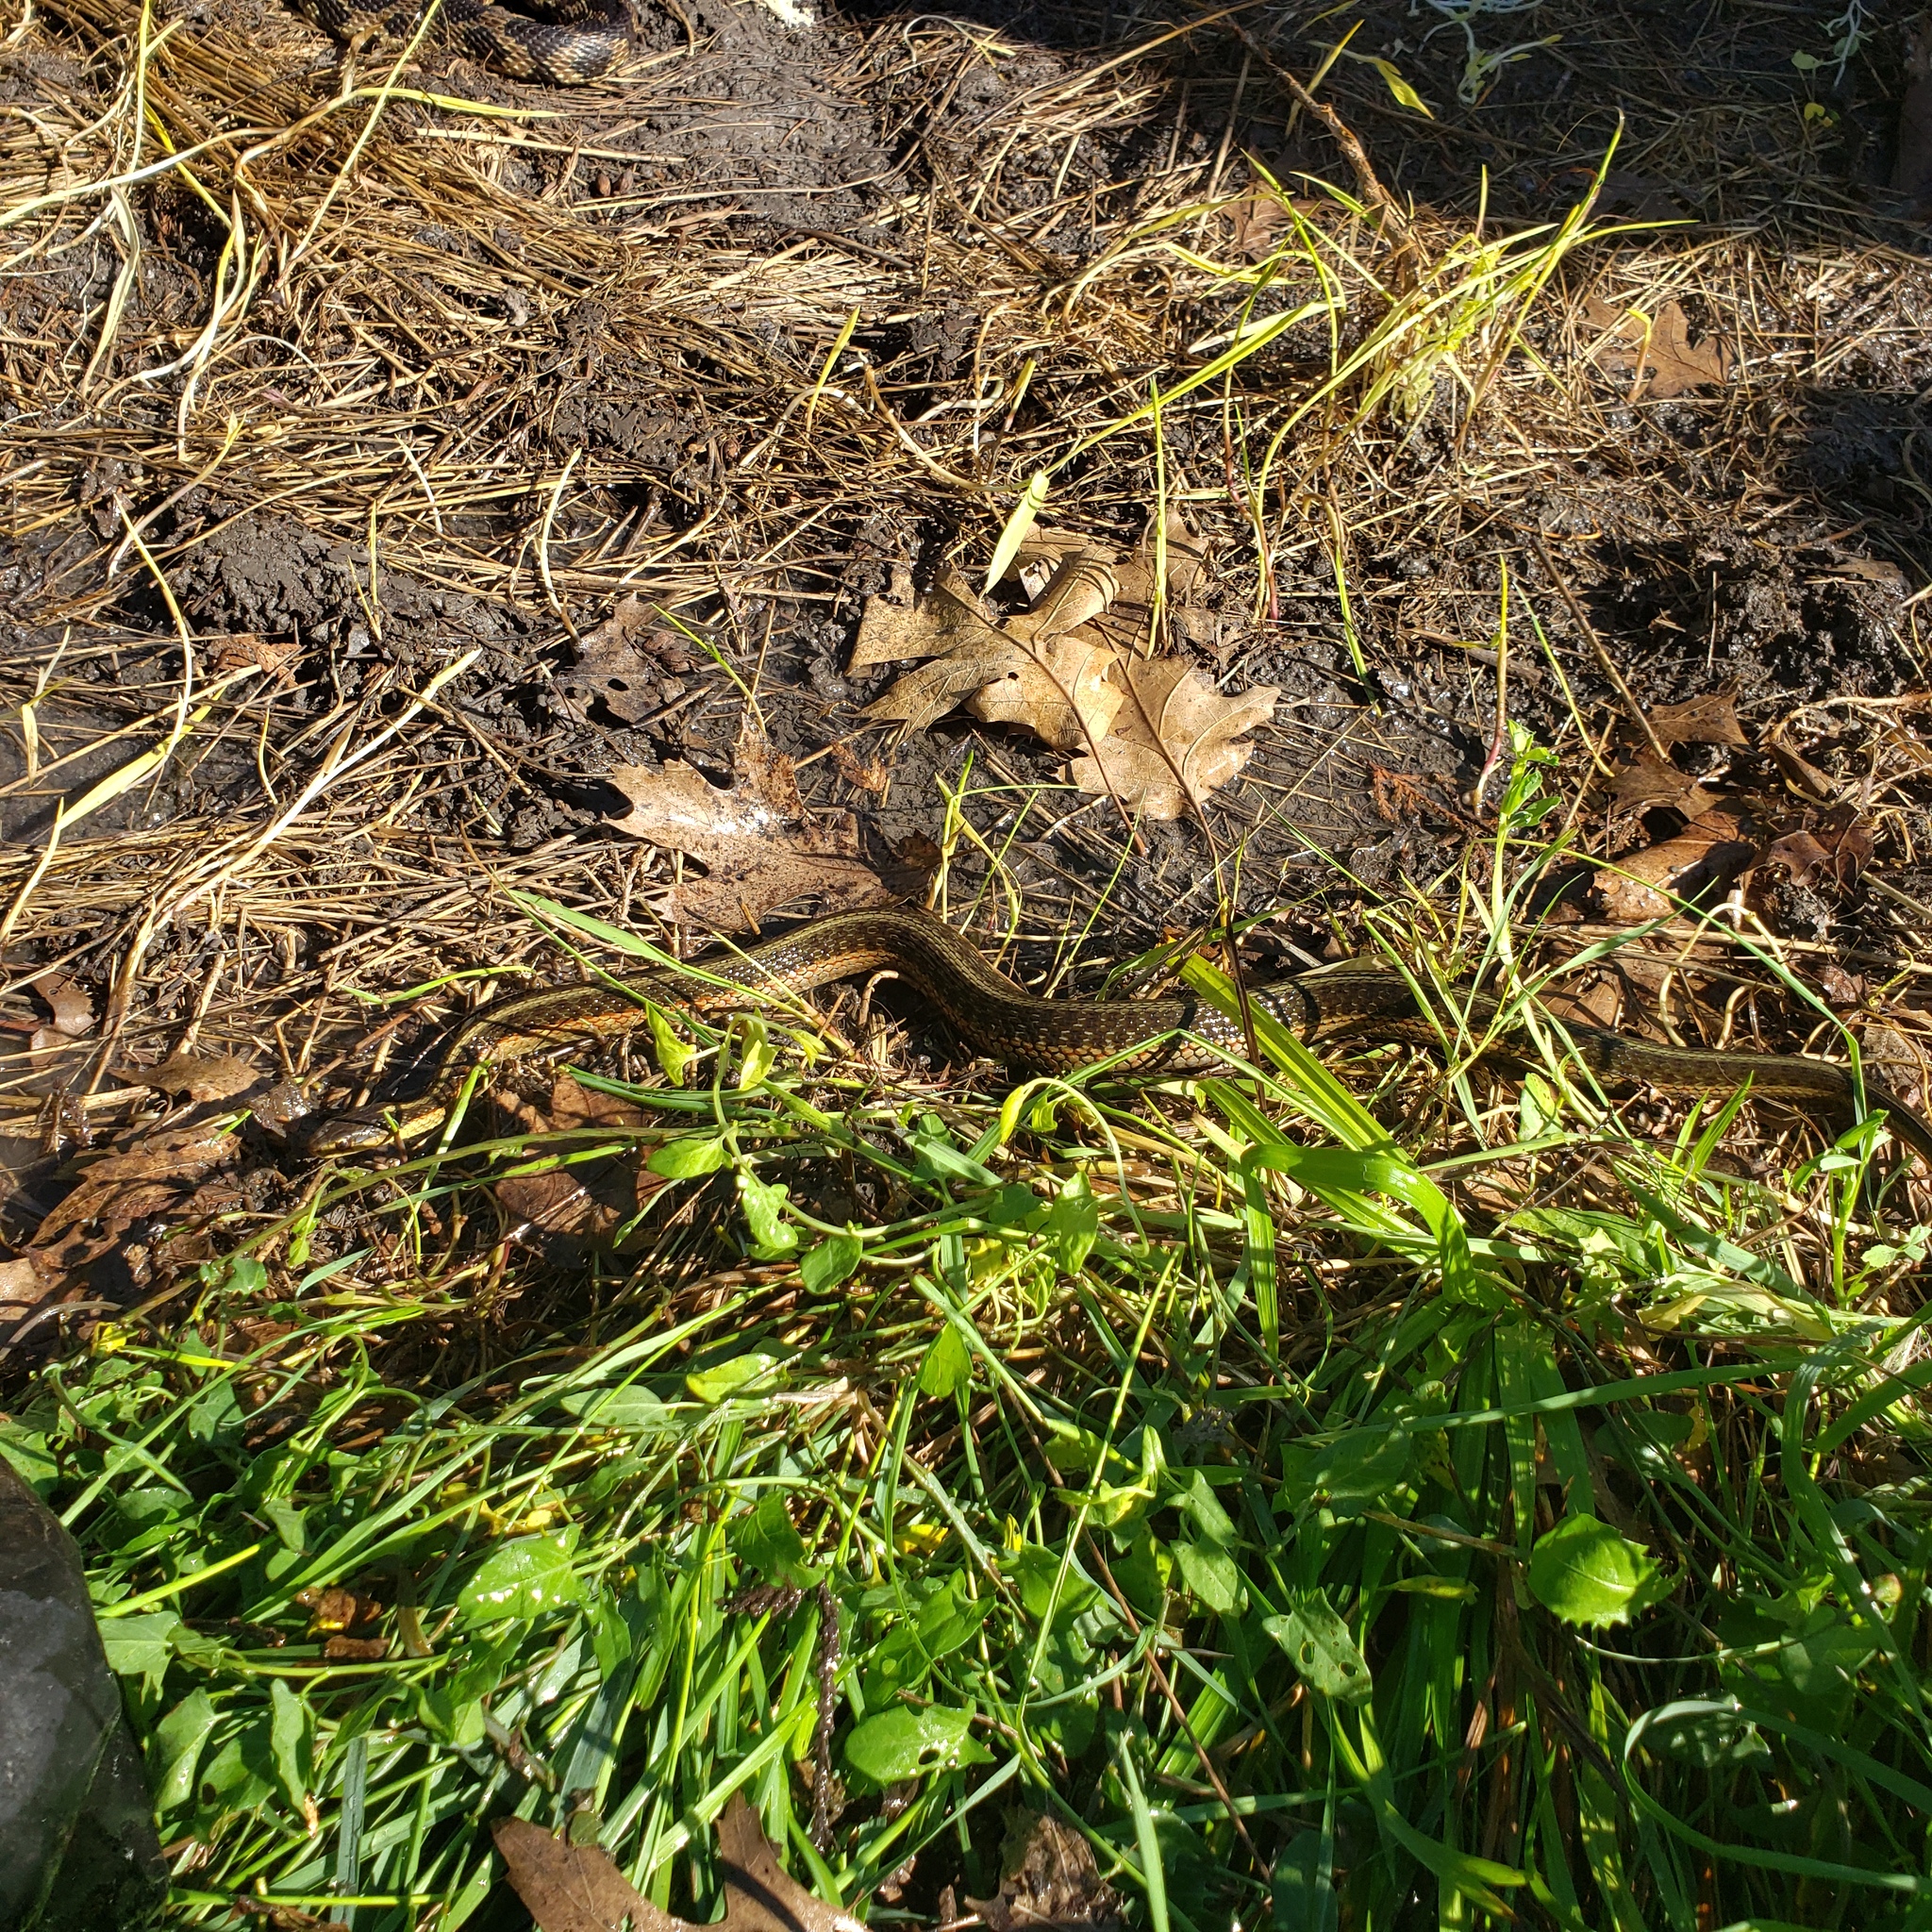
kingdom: Animalia
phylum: Chordata
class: Squamata
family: Colubridae
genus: Thamnophis
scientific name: Thamnophis sirtalis
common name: Common garter snake
